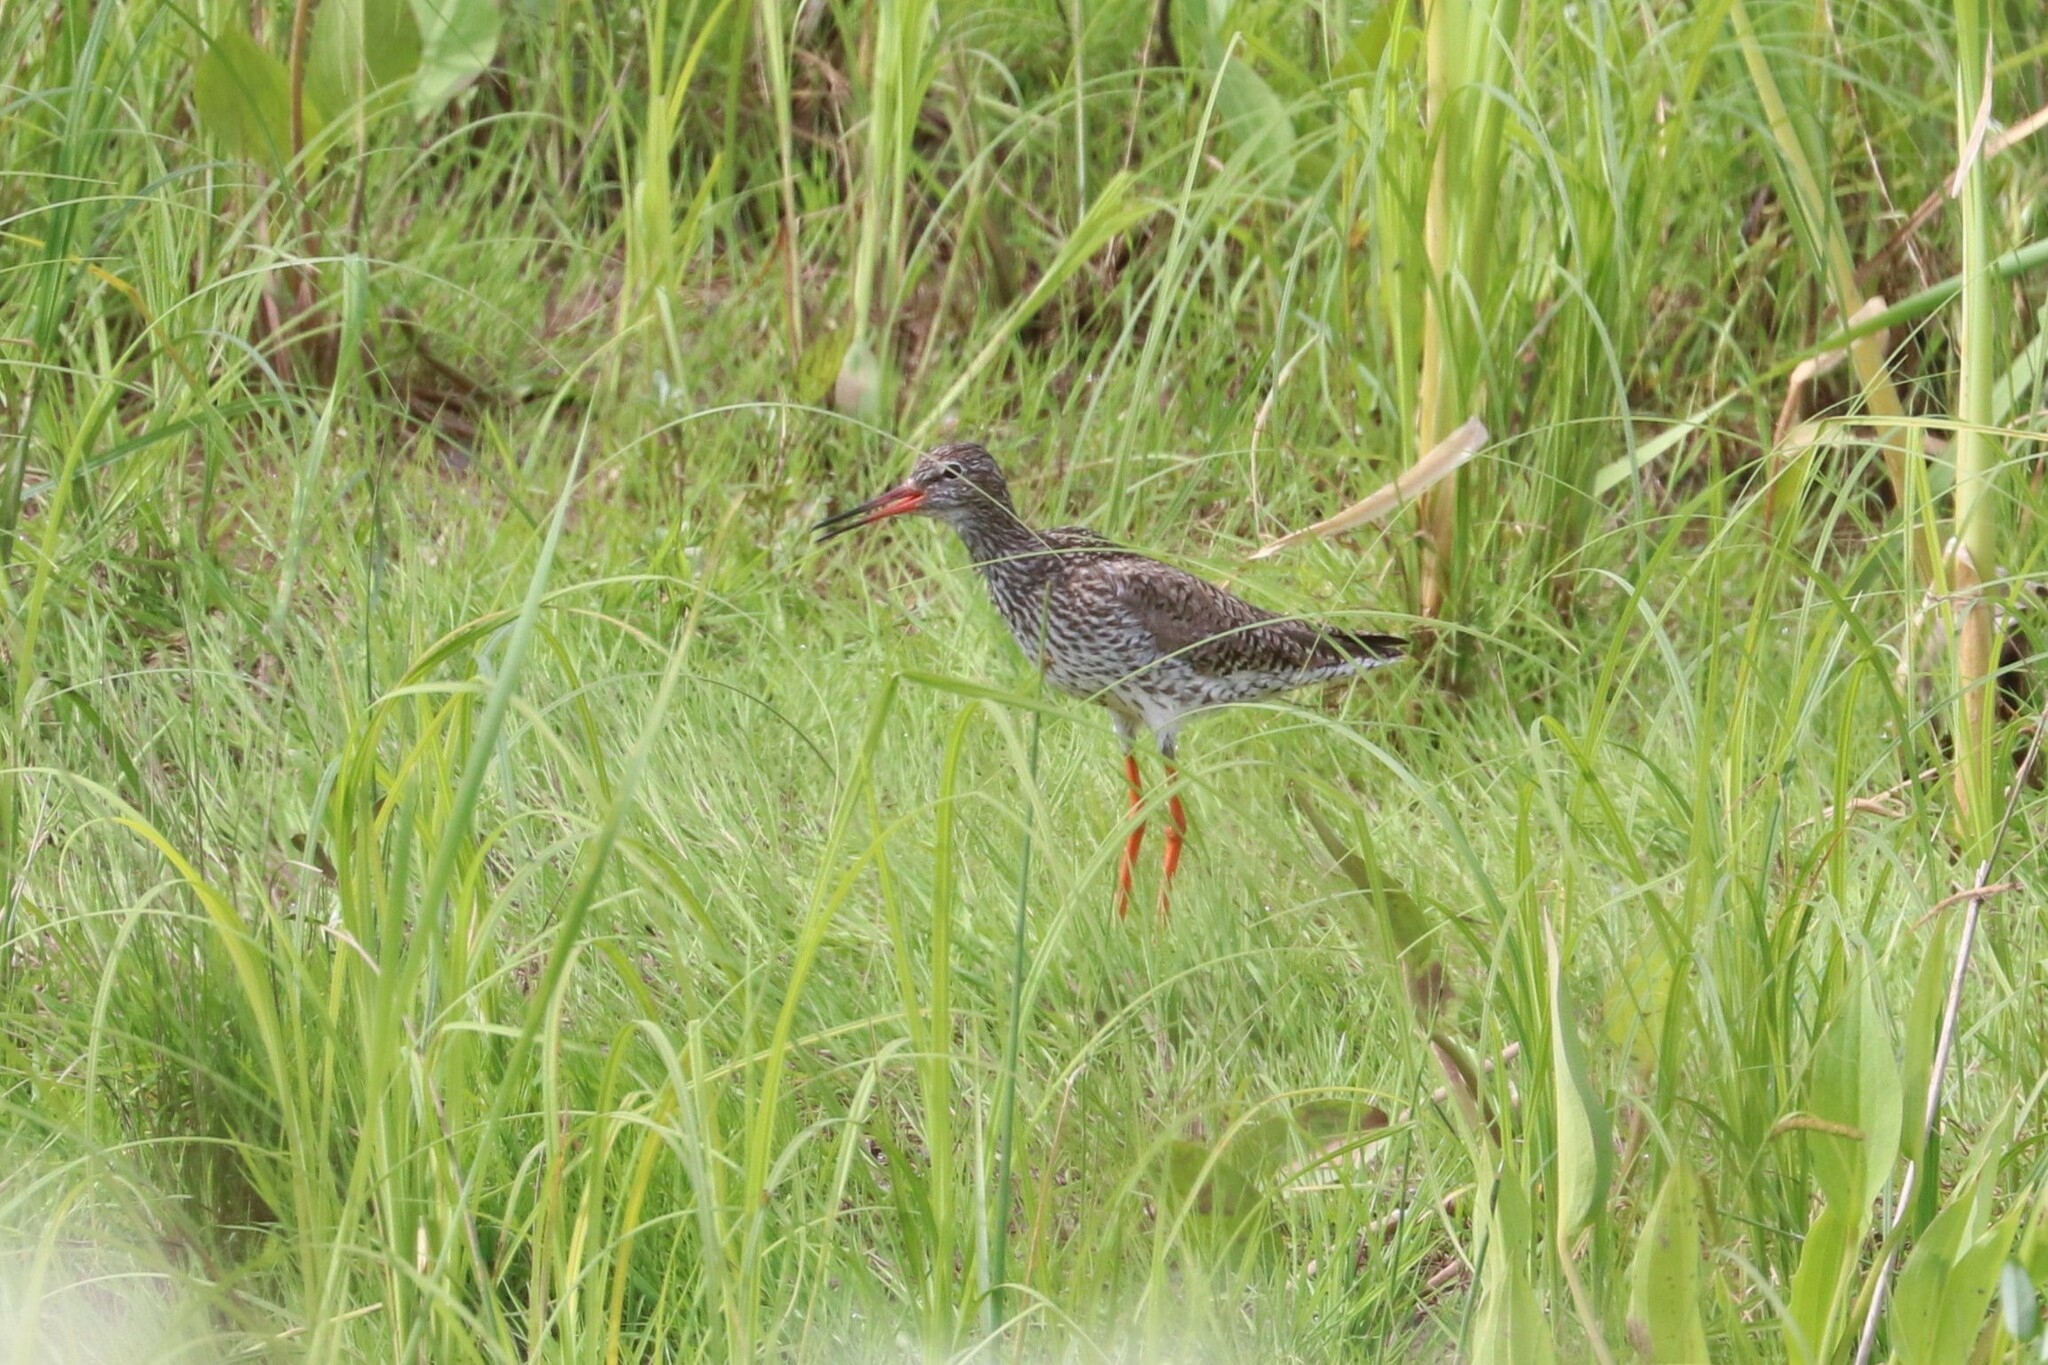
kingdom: Animalia
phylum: Chordata
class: Aves
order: Charadriiformes
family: Scolopacidae
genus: Tringa
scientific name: Tringa totanus
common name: Common redshank
